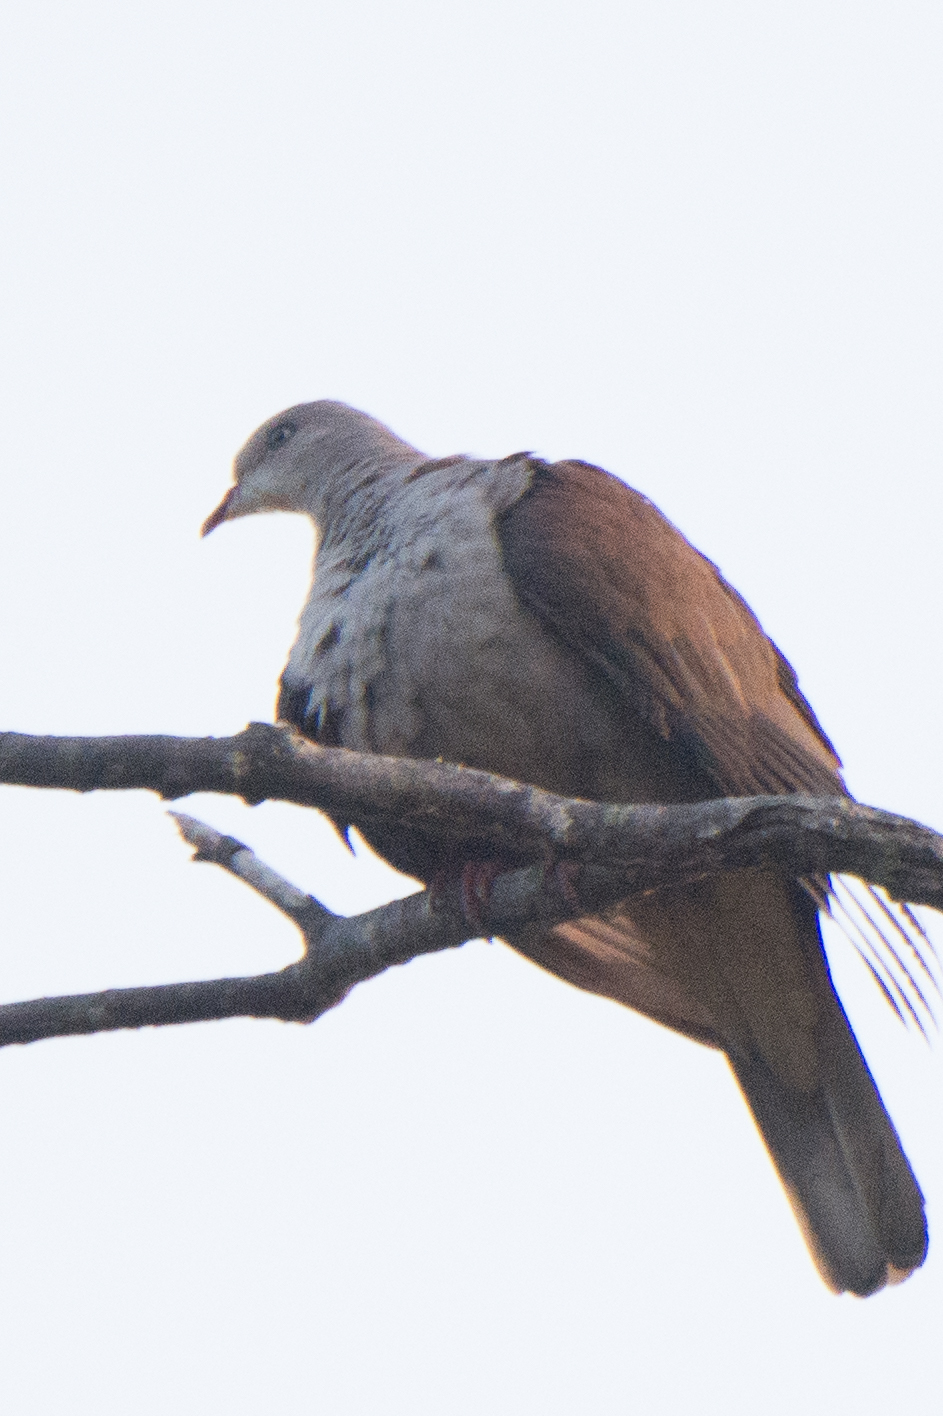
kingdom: Animalia
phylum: Chordata
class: Aves
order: Columbiformes
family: Columbidae
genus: Ducula
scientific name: Ducula badia
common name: Mountain imperial pigeon
